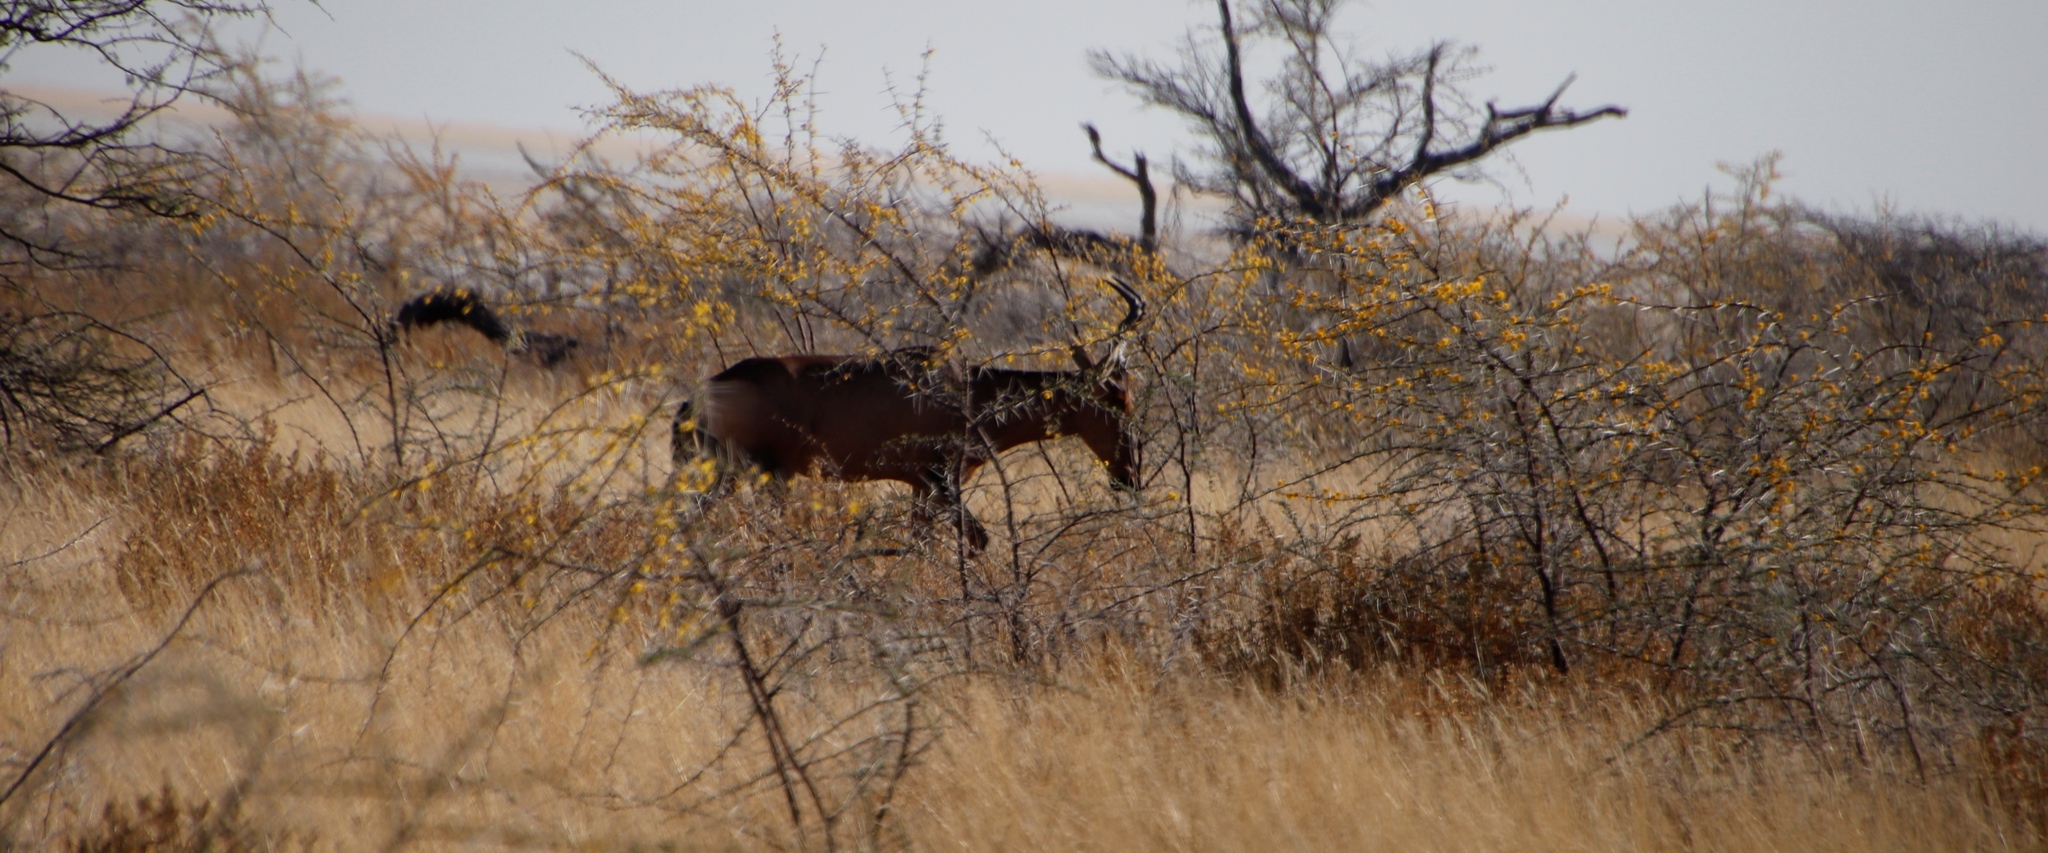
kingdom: Animalia
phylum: Chordata
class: Mammalia
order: Artiodactyla
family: Bovidae
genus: Alcelaphus
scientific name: Alcelaphus caama
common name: Red hartebeest
